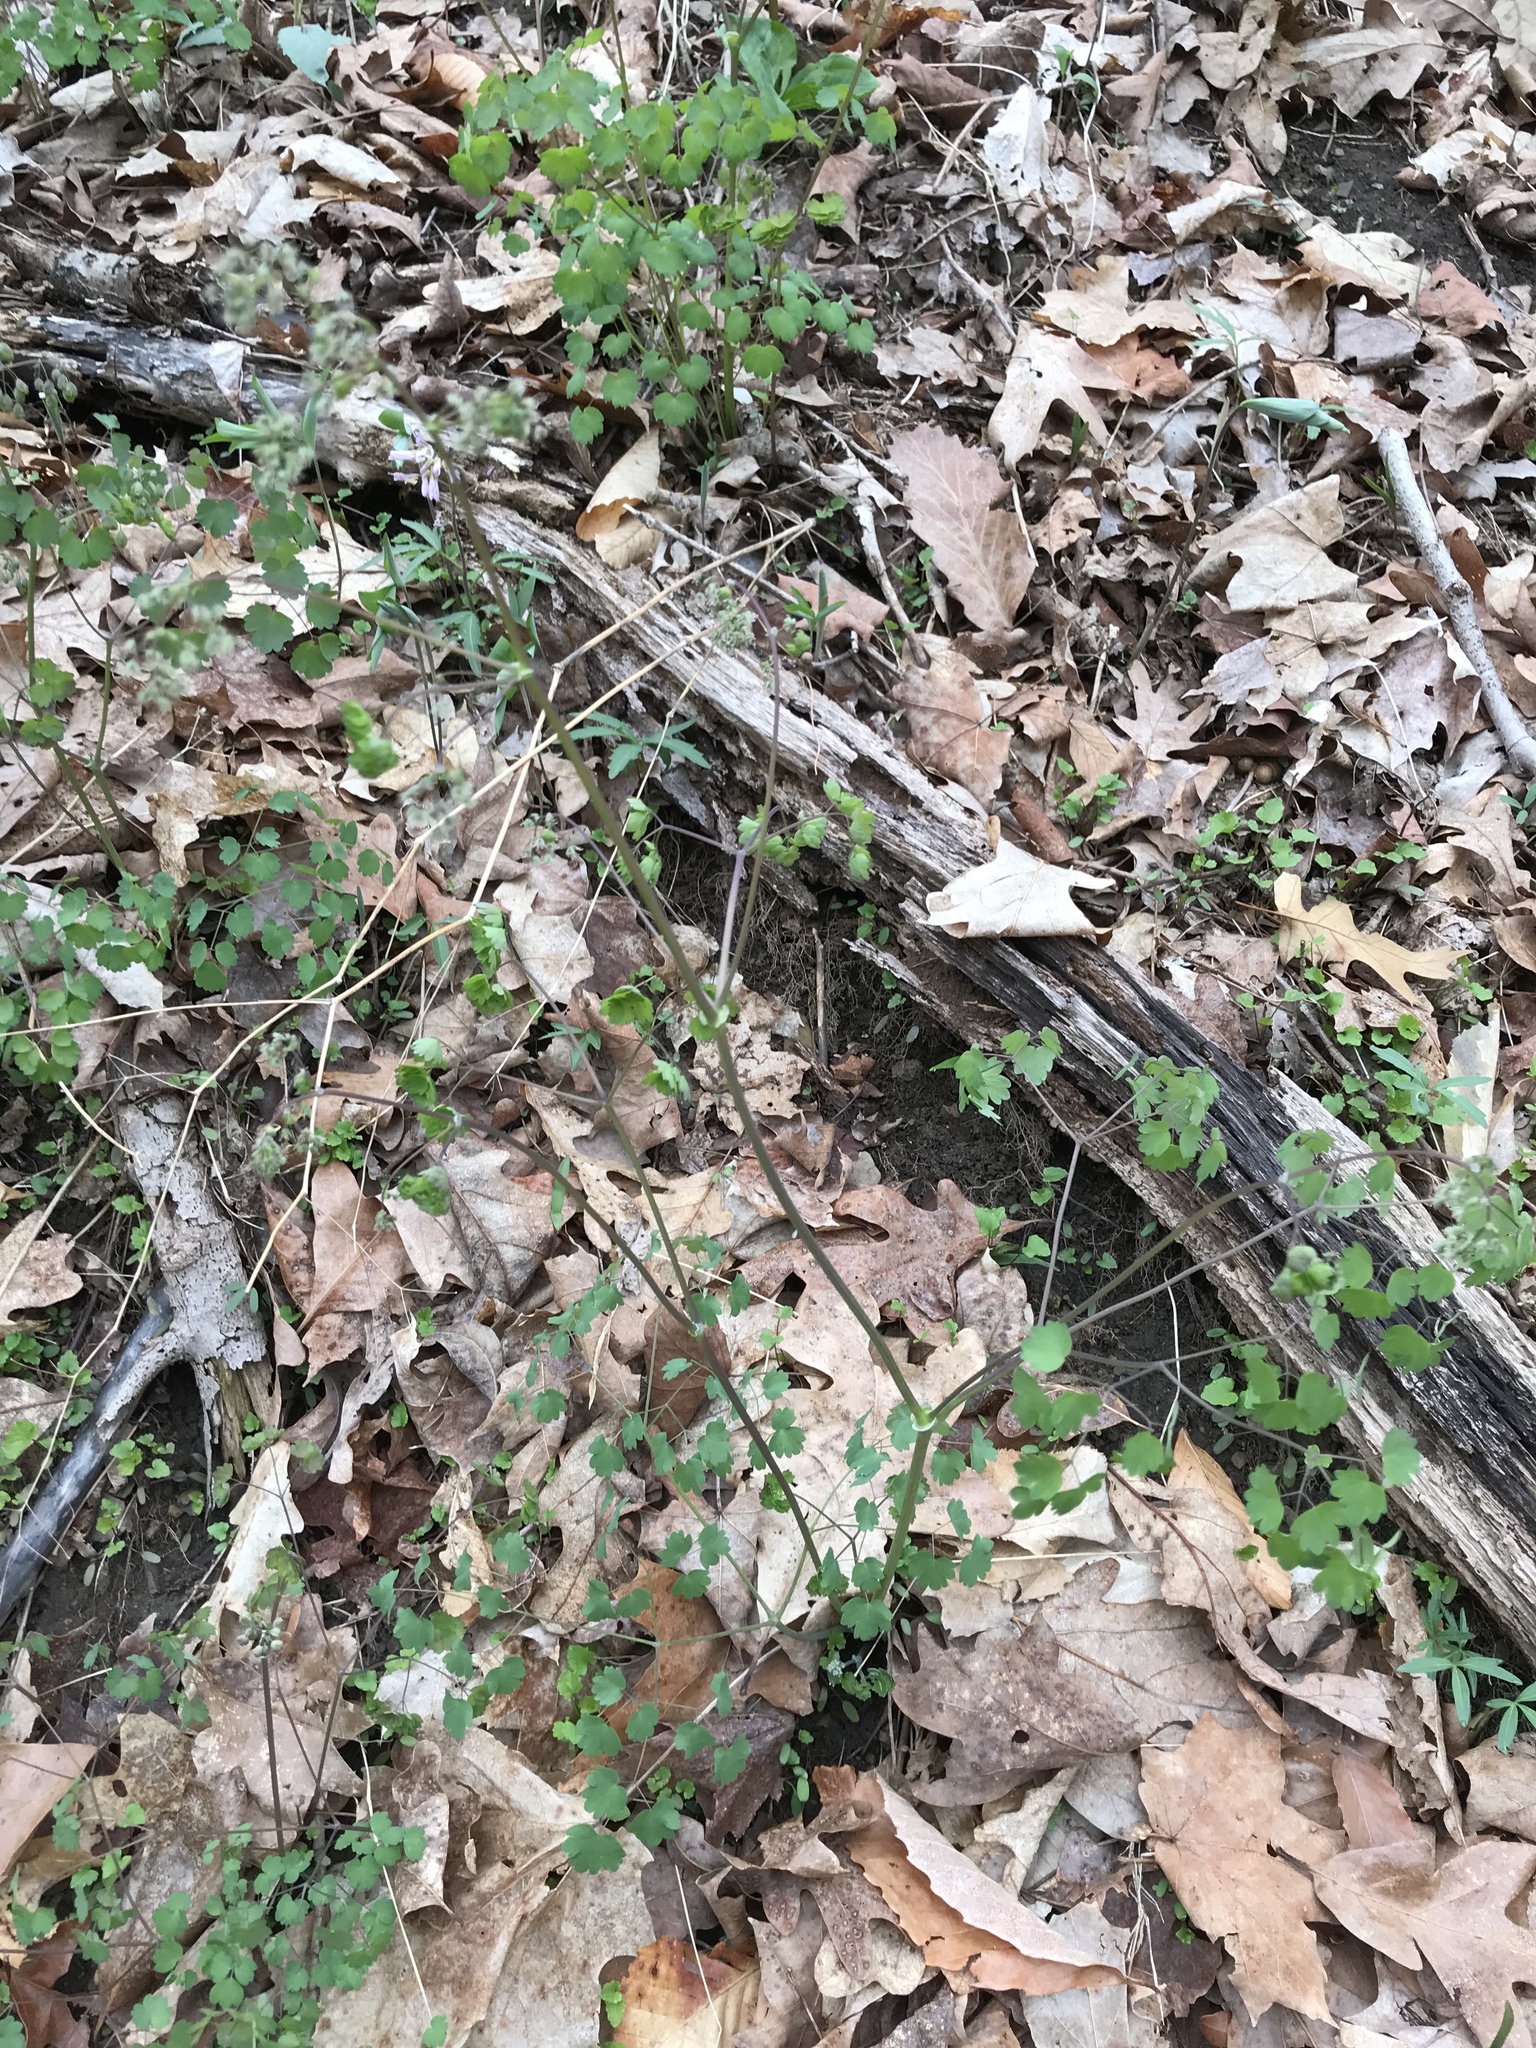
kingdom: Plantae
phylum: Tracheophyta
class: Magnoliopsida
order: Ranunculales
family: Ranunculaceae
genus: Thalictrum
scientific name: Thalictrum dioicum
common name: Early meadow-rue
